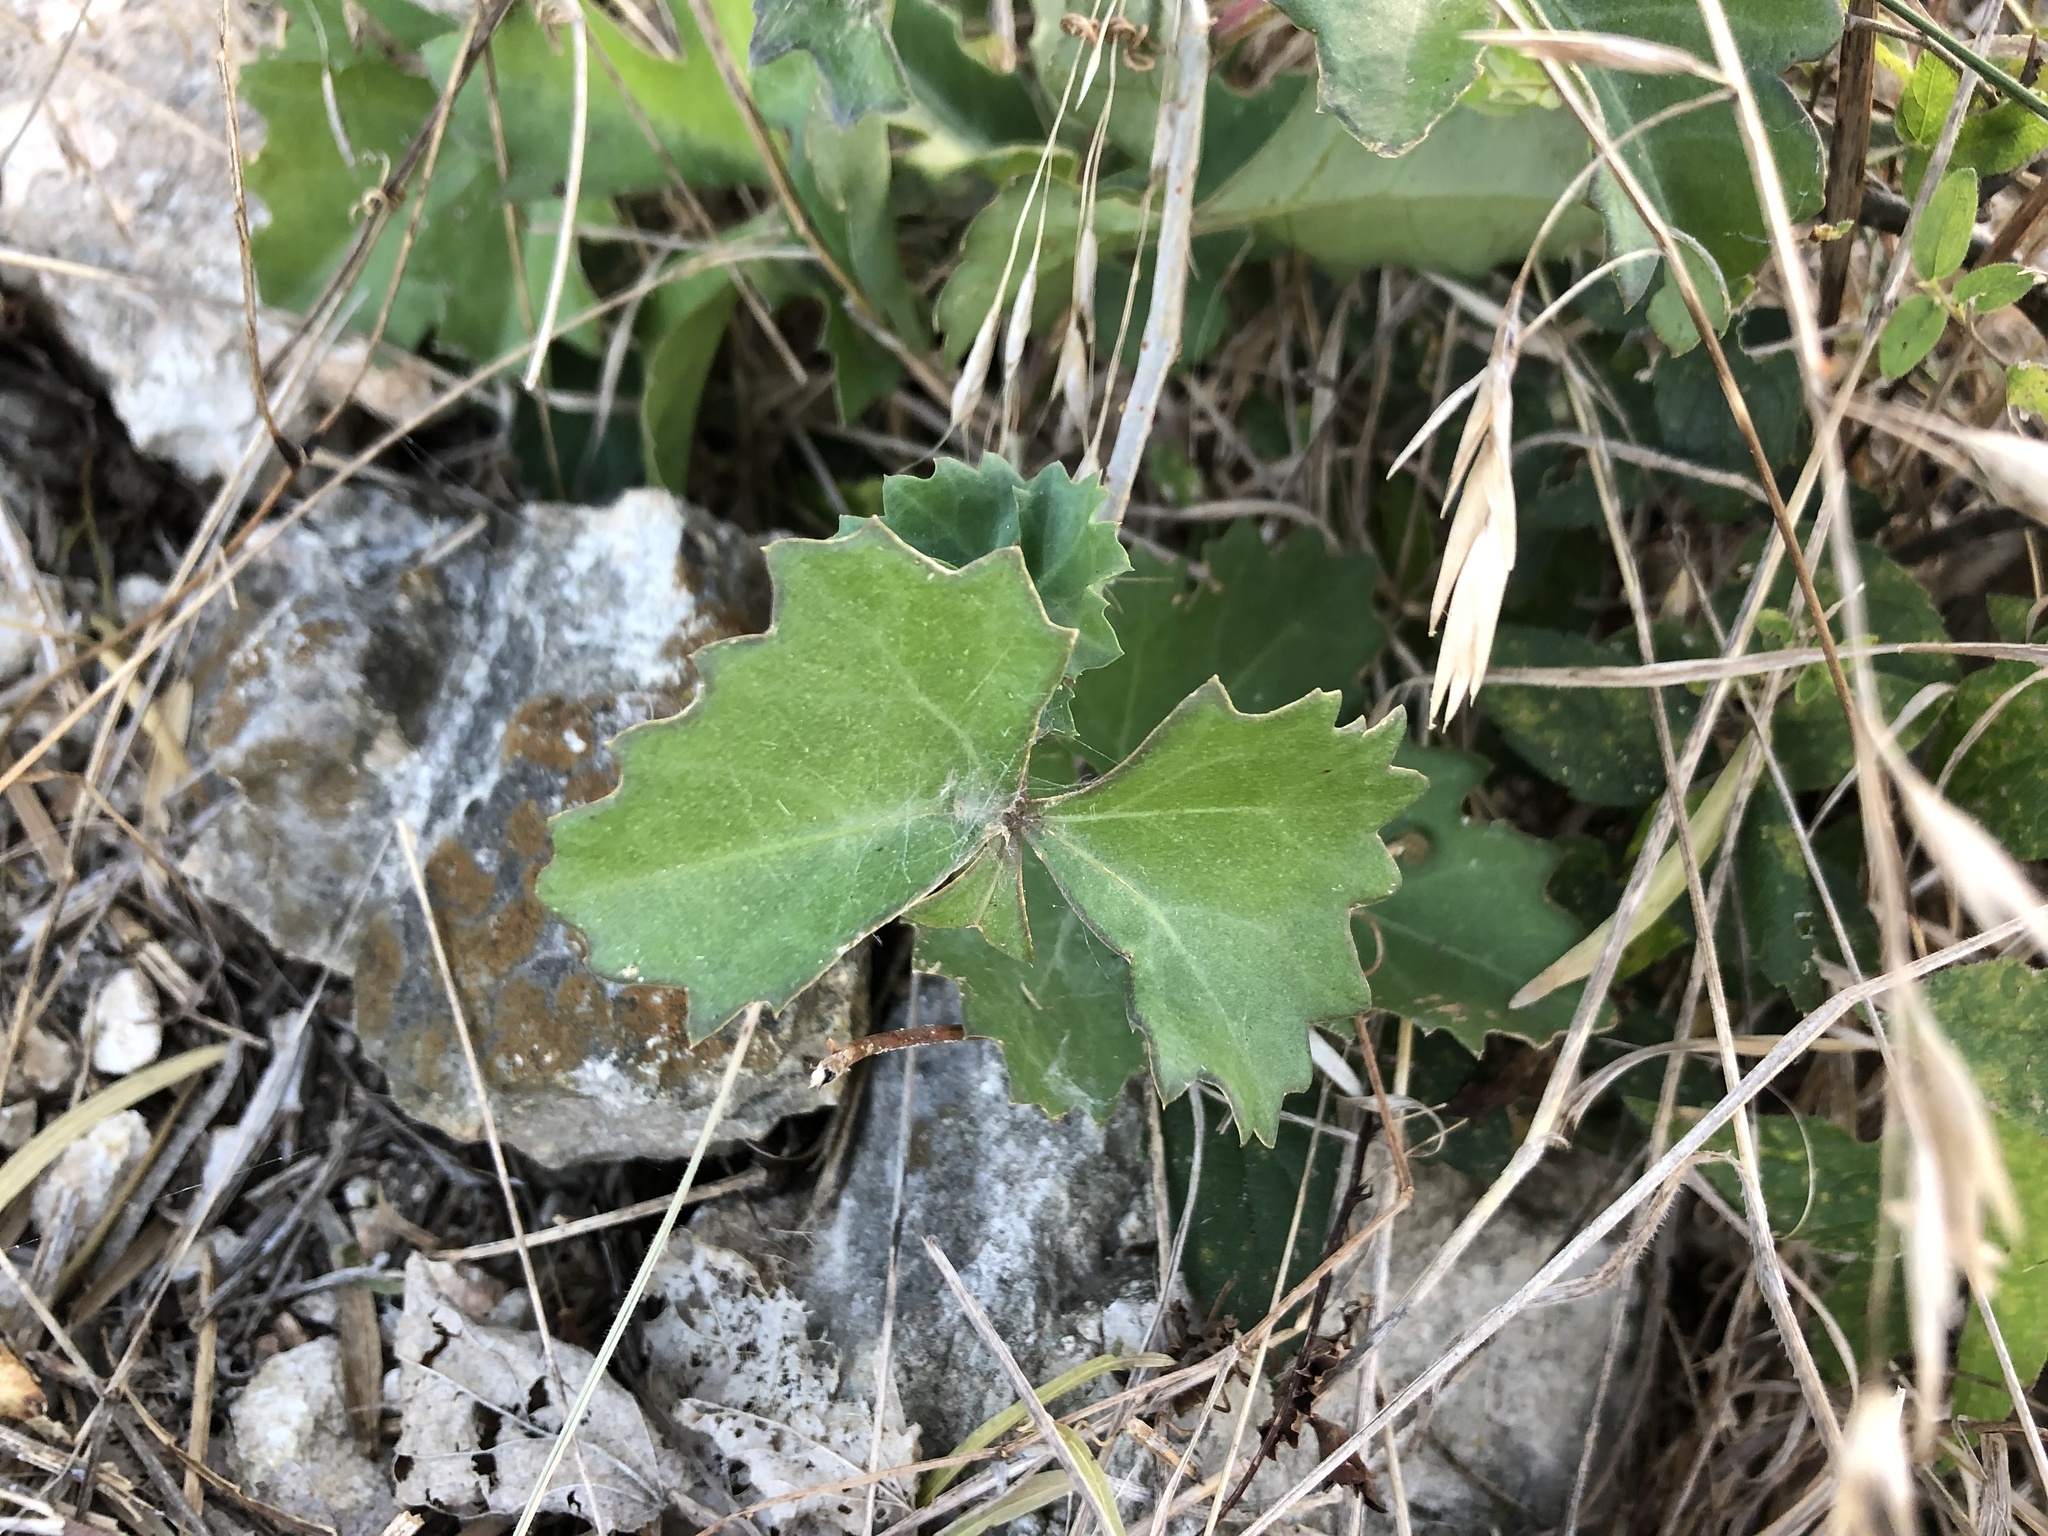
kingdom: Plantae
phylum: Tracheophyta
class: Magnoliopsida
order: Vitales
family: Vitaceae
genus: Cissus
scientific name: Cissus trifoliata
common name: Vine-sorrel
